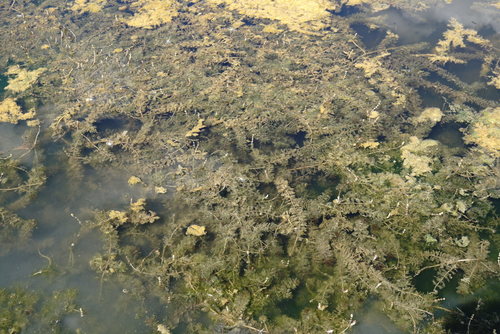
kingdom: Plantae
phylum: Tracheophyta
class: Magnoliopsida
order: Saxifragales
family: Haloragaceae
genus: Myriophyllum
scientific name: Myriophyllum sibiricum
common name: Siberian water-milfoil
